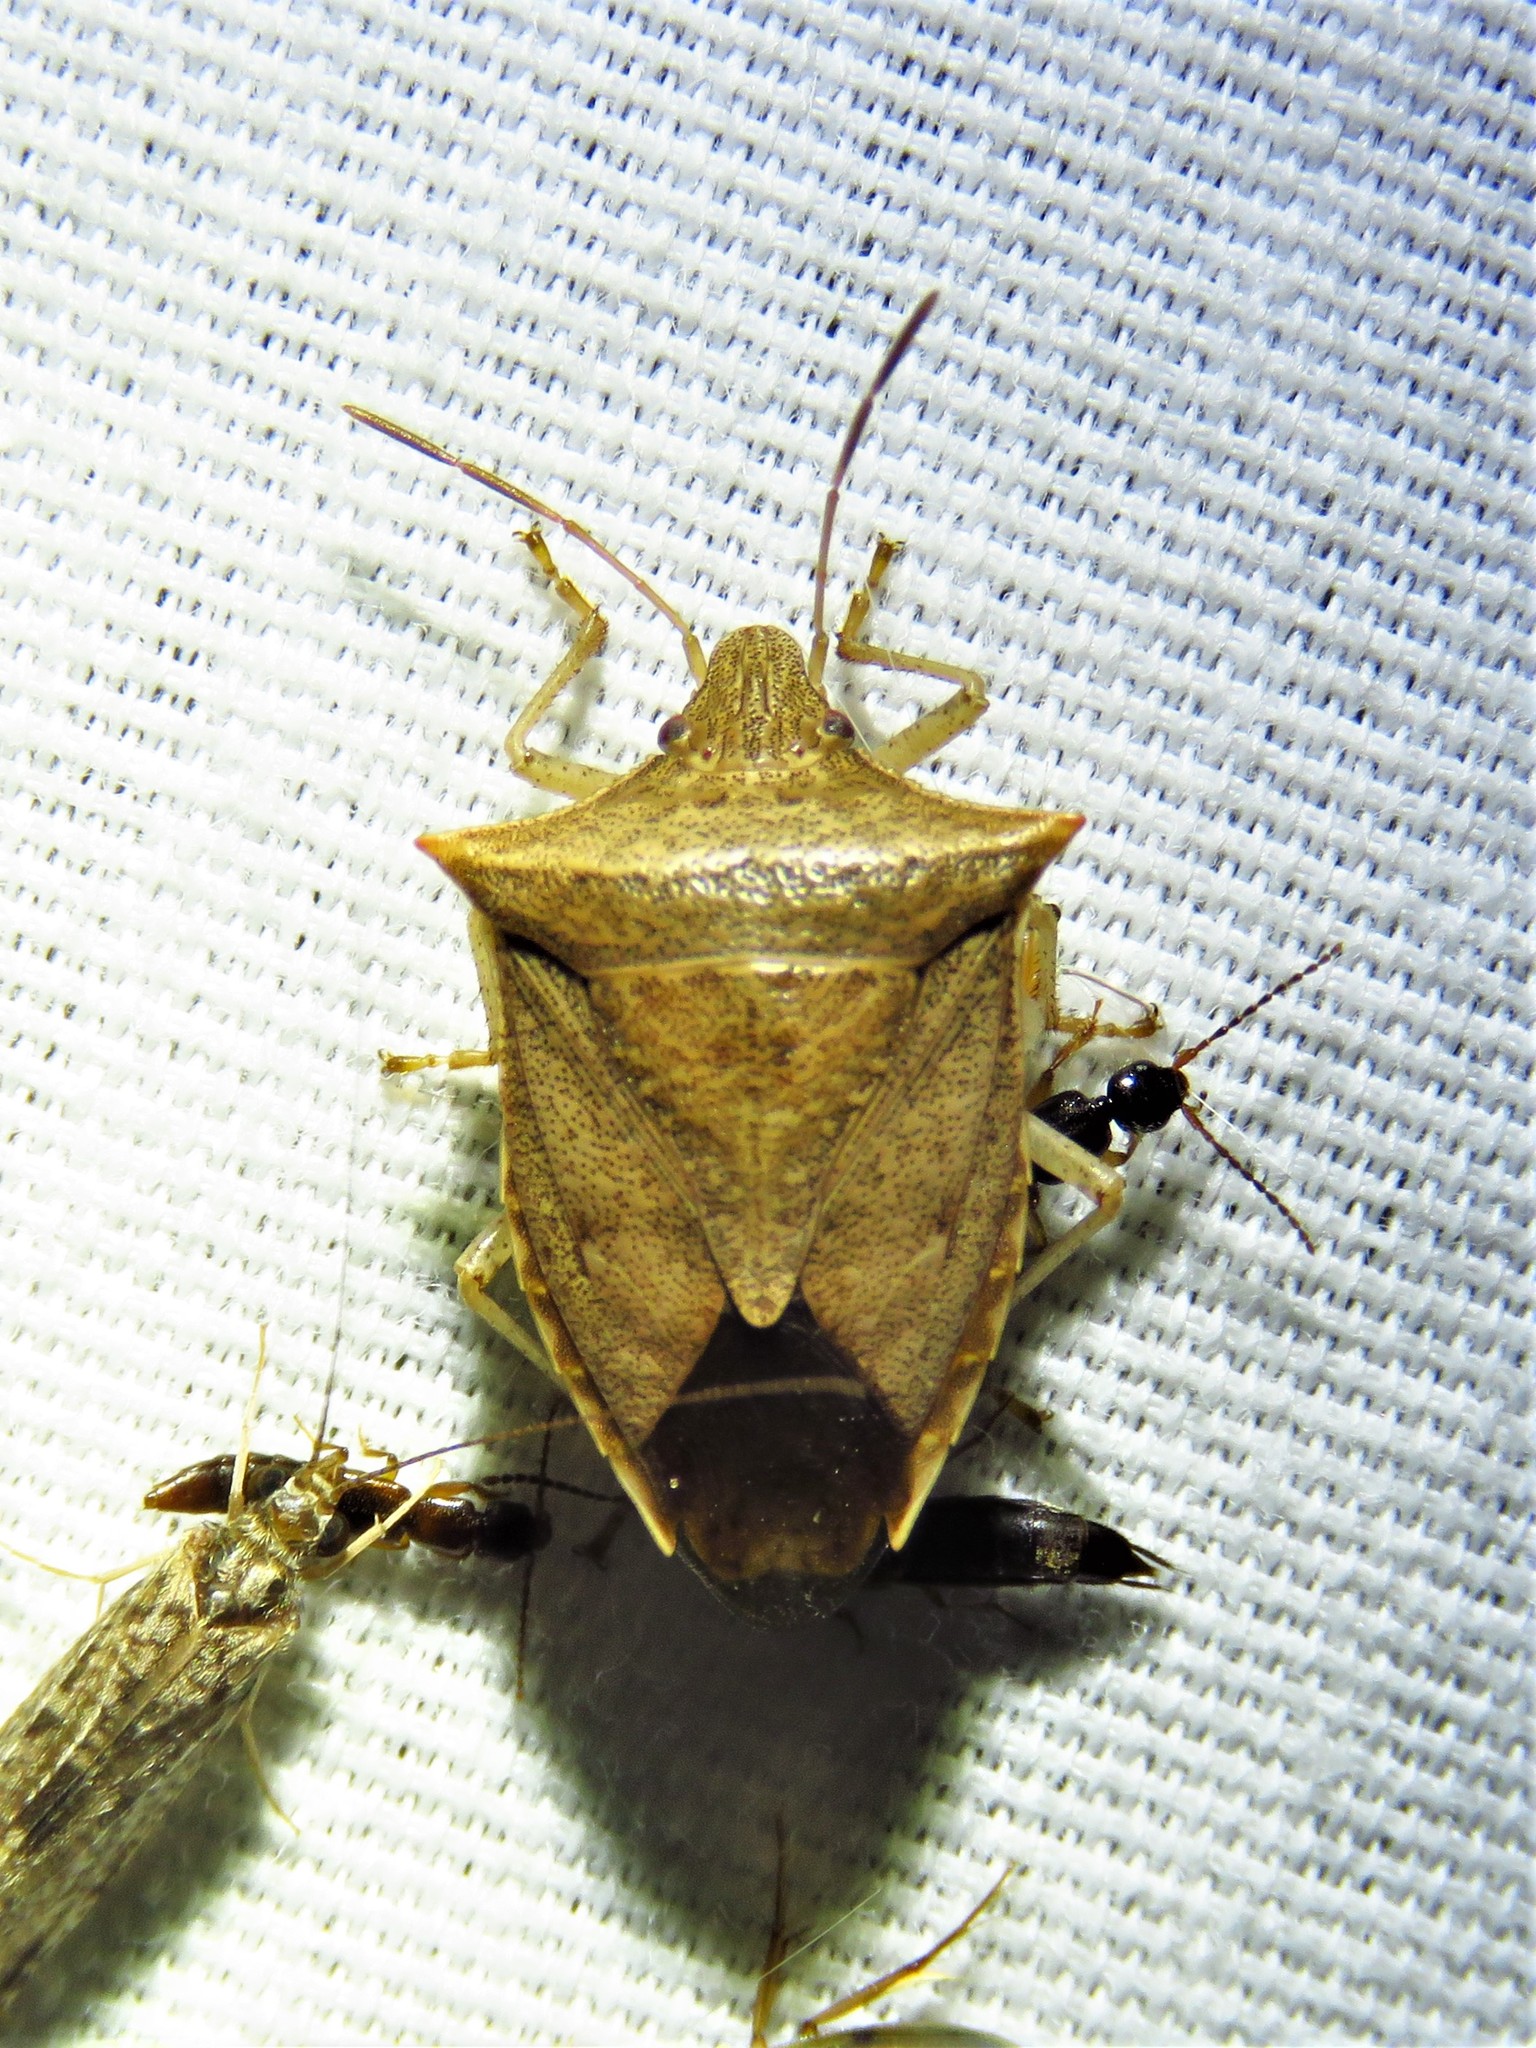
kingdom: Animalia
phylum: Arthropoda
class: Insecta
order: Hemiptera
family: Pentatomidae
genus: Euschistus
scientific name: Euschistus ictericus
